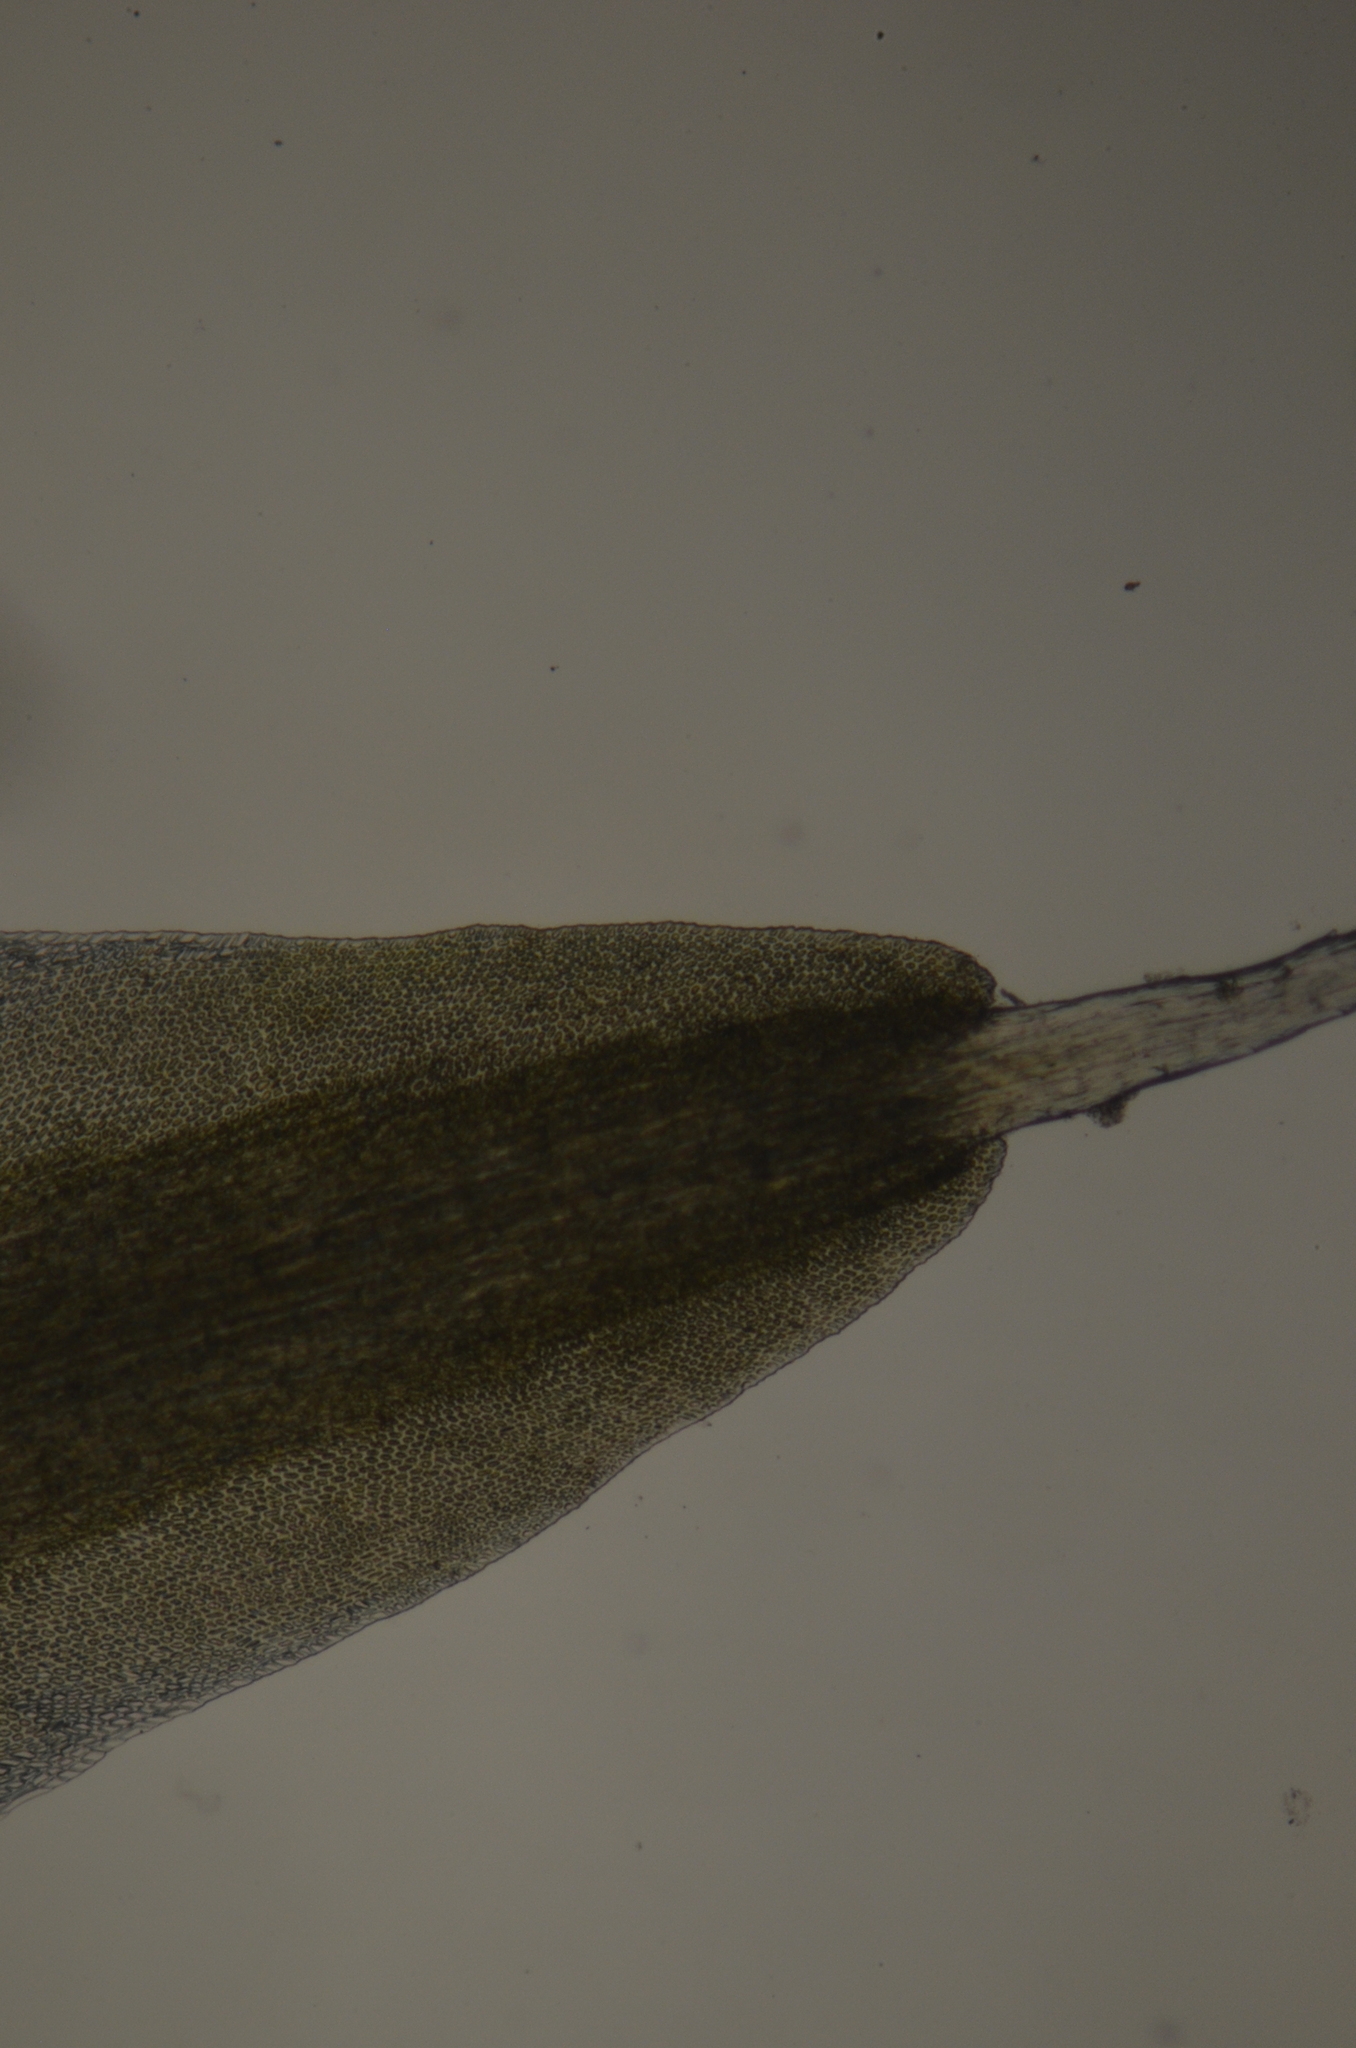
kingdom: Plantae
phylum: Bryophyta
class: Bryopsida
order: Dicranales
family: Leucobryaceae
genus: Campylopus
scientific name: Campylopus introflexus
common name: Heath star moss
